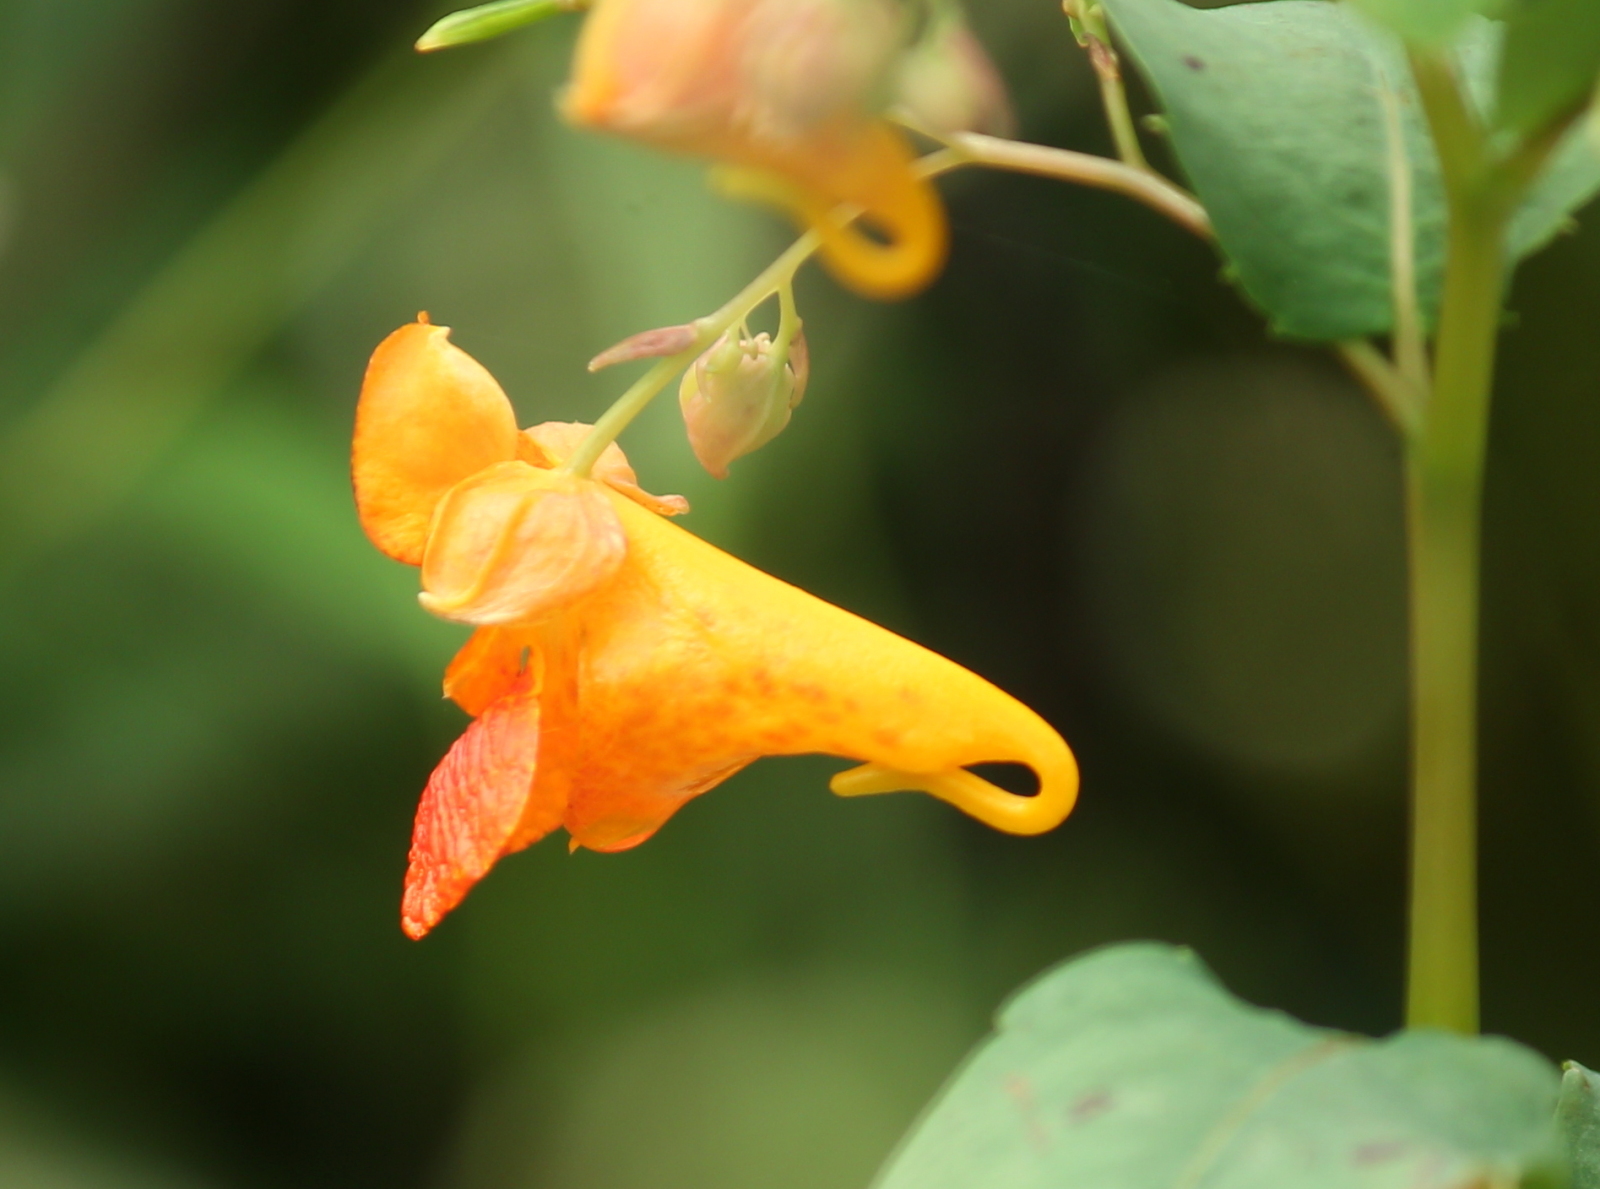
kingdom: Plantae
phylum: Tracheophyta
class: Magnoliopsida
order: Ericales
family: Balsaminaceae
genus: Impatiens
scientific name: Impatiens capensis
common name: Orange balsam
